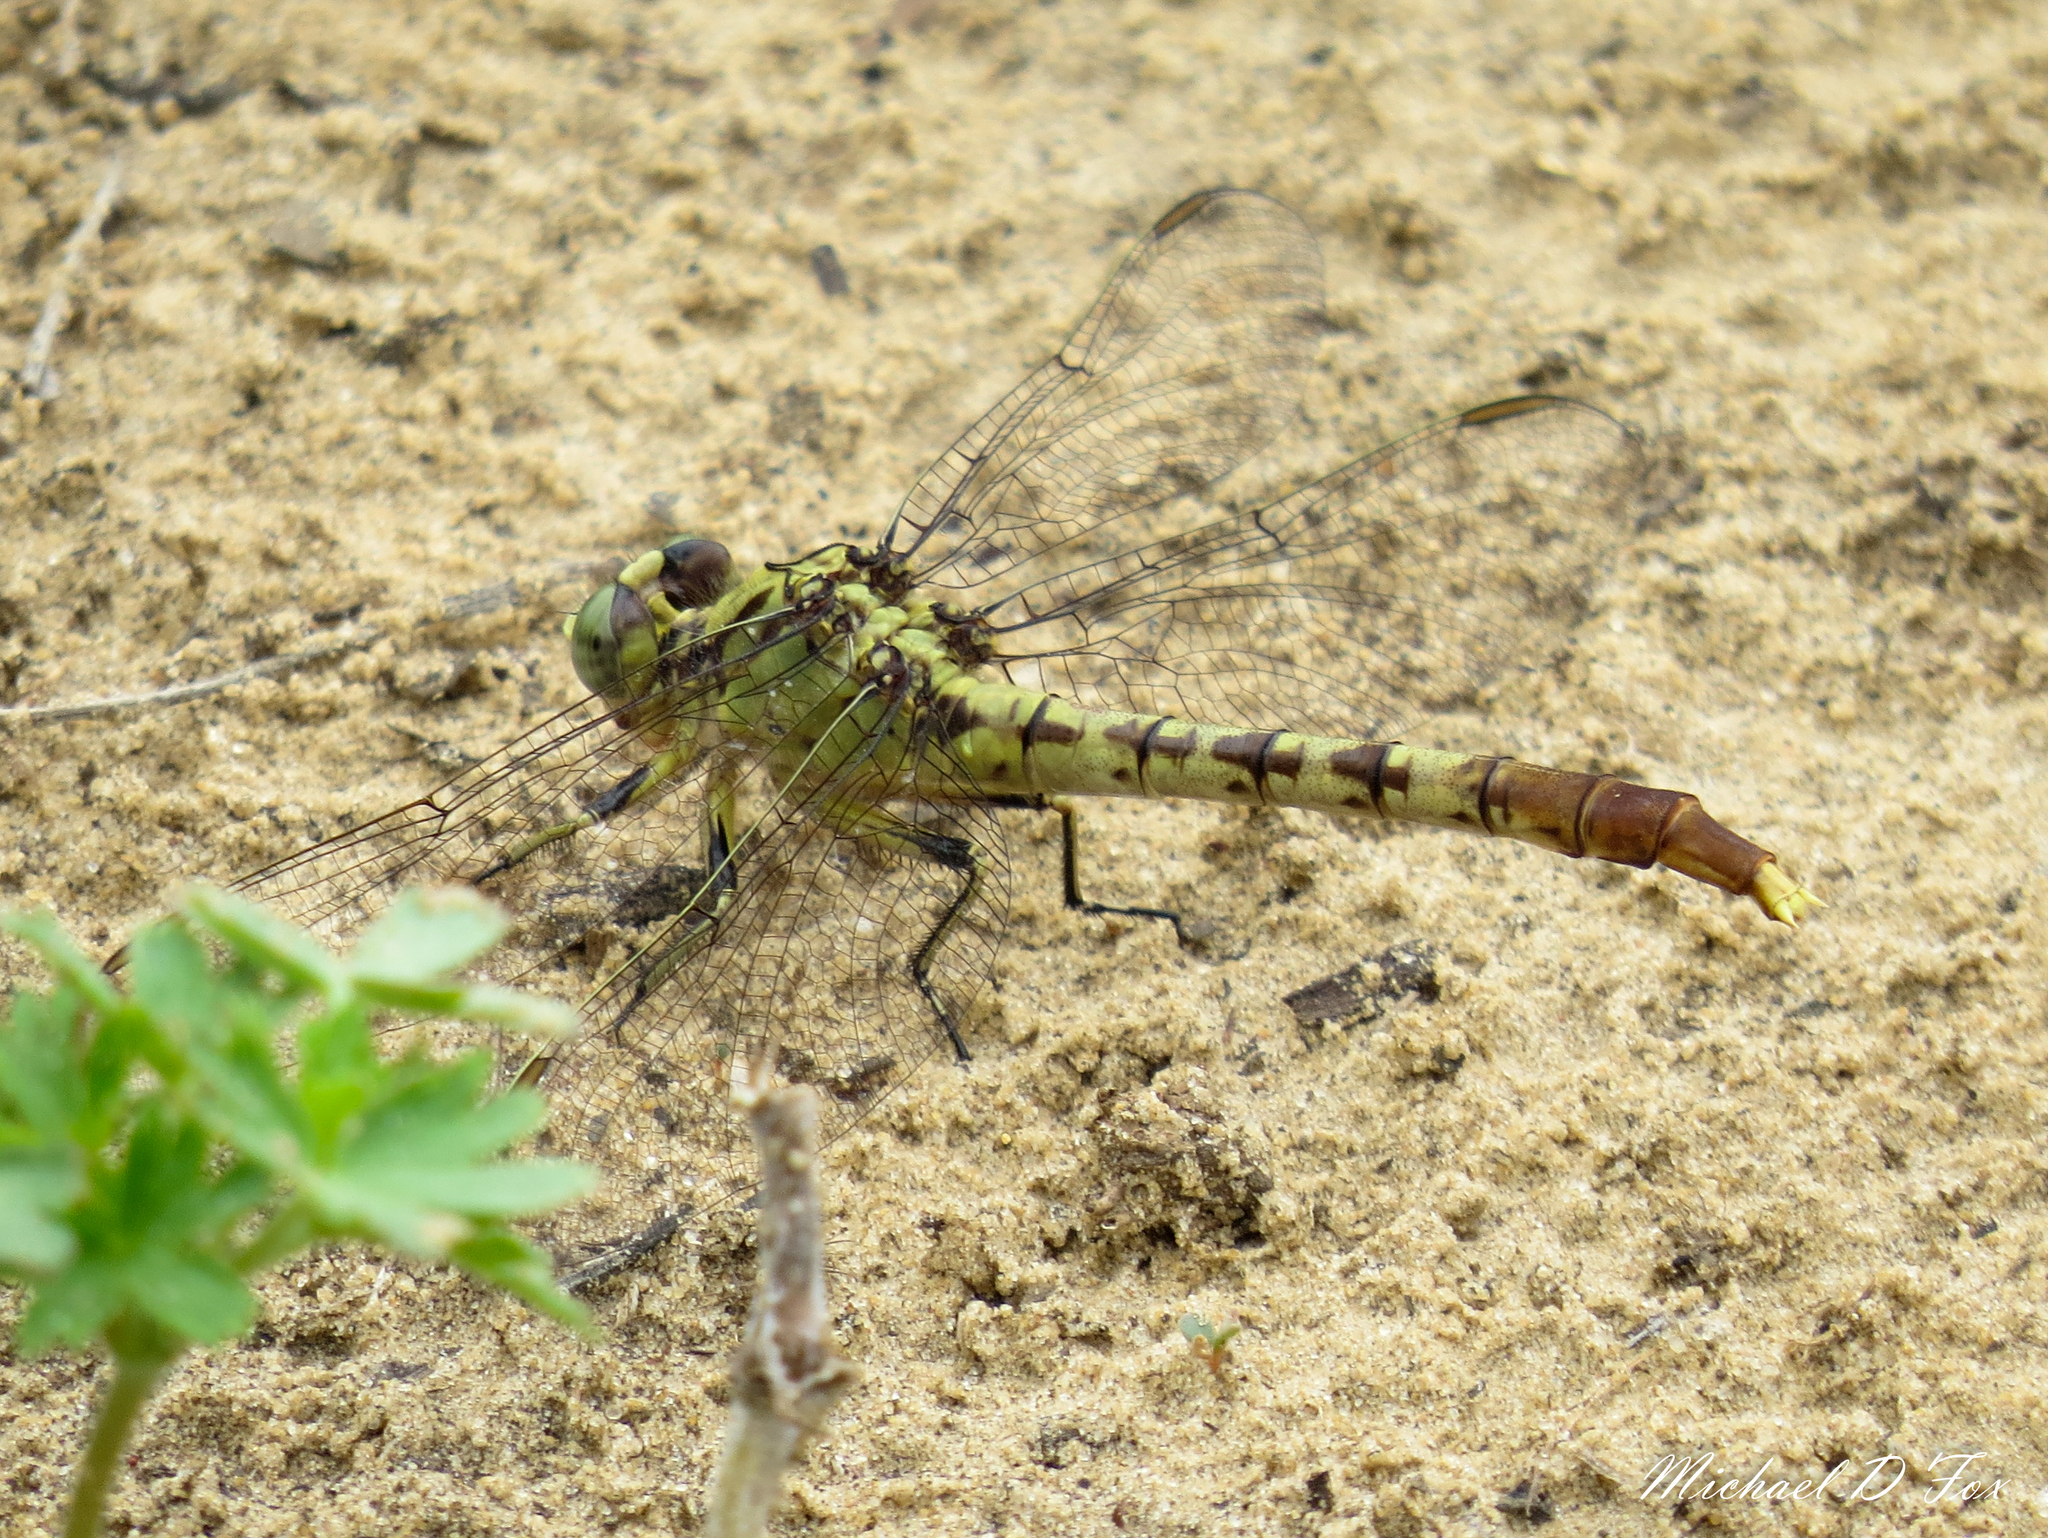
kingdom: Animalia
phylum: Arthropoda
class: Insecta
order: Odonata
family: Gomphidae
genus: Arigomphus
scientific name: Arigomphus submedianus
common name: Jade clubtail
